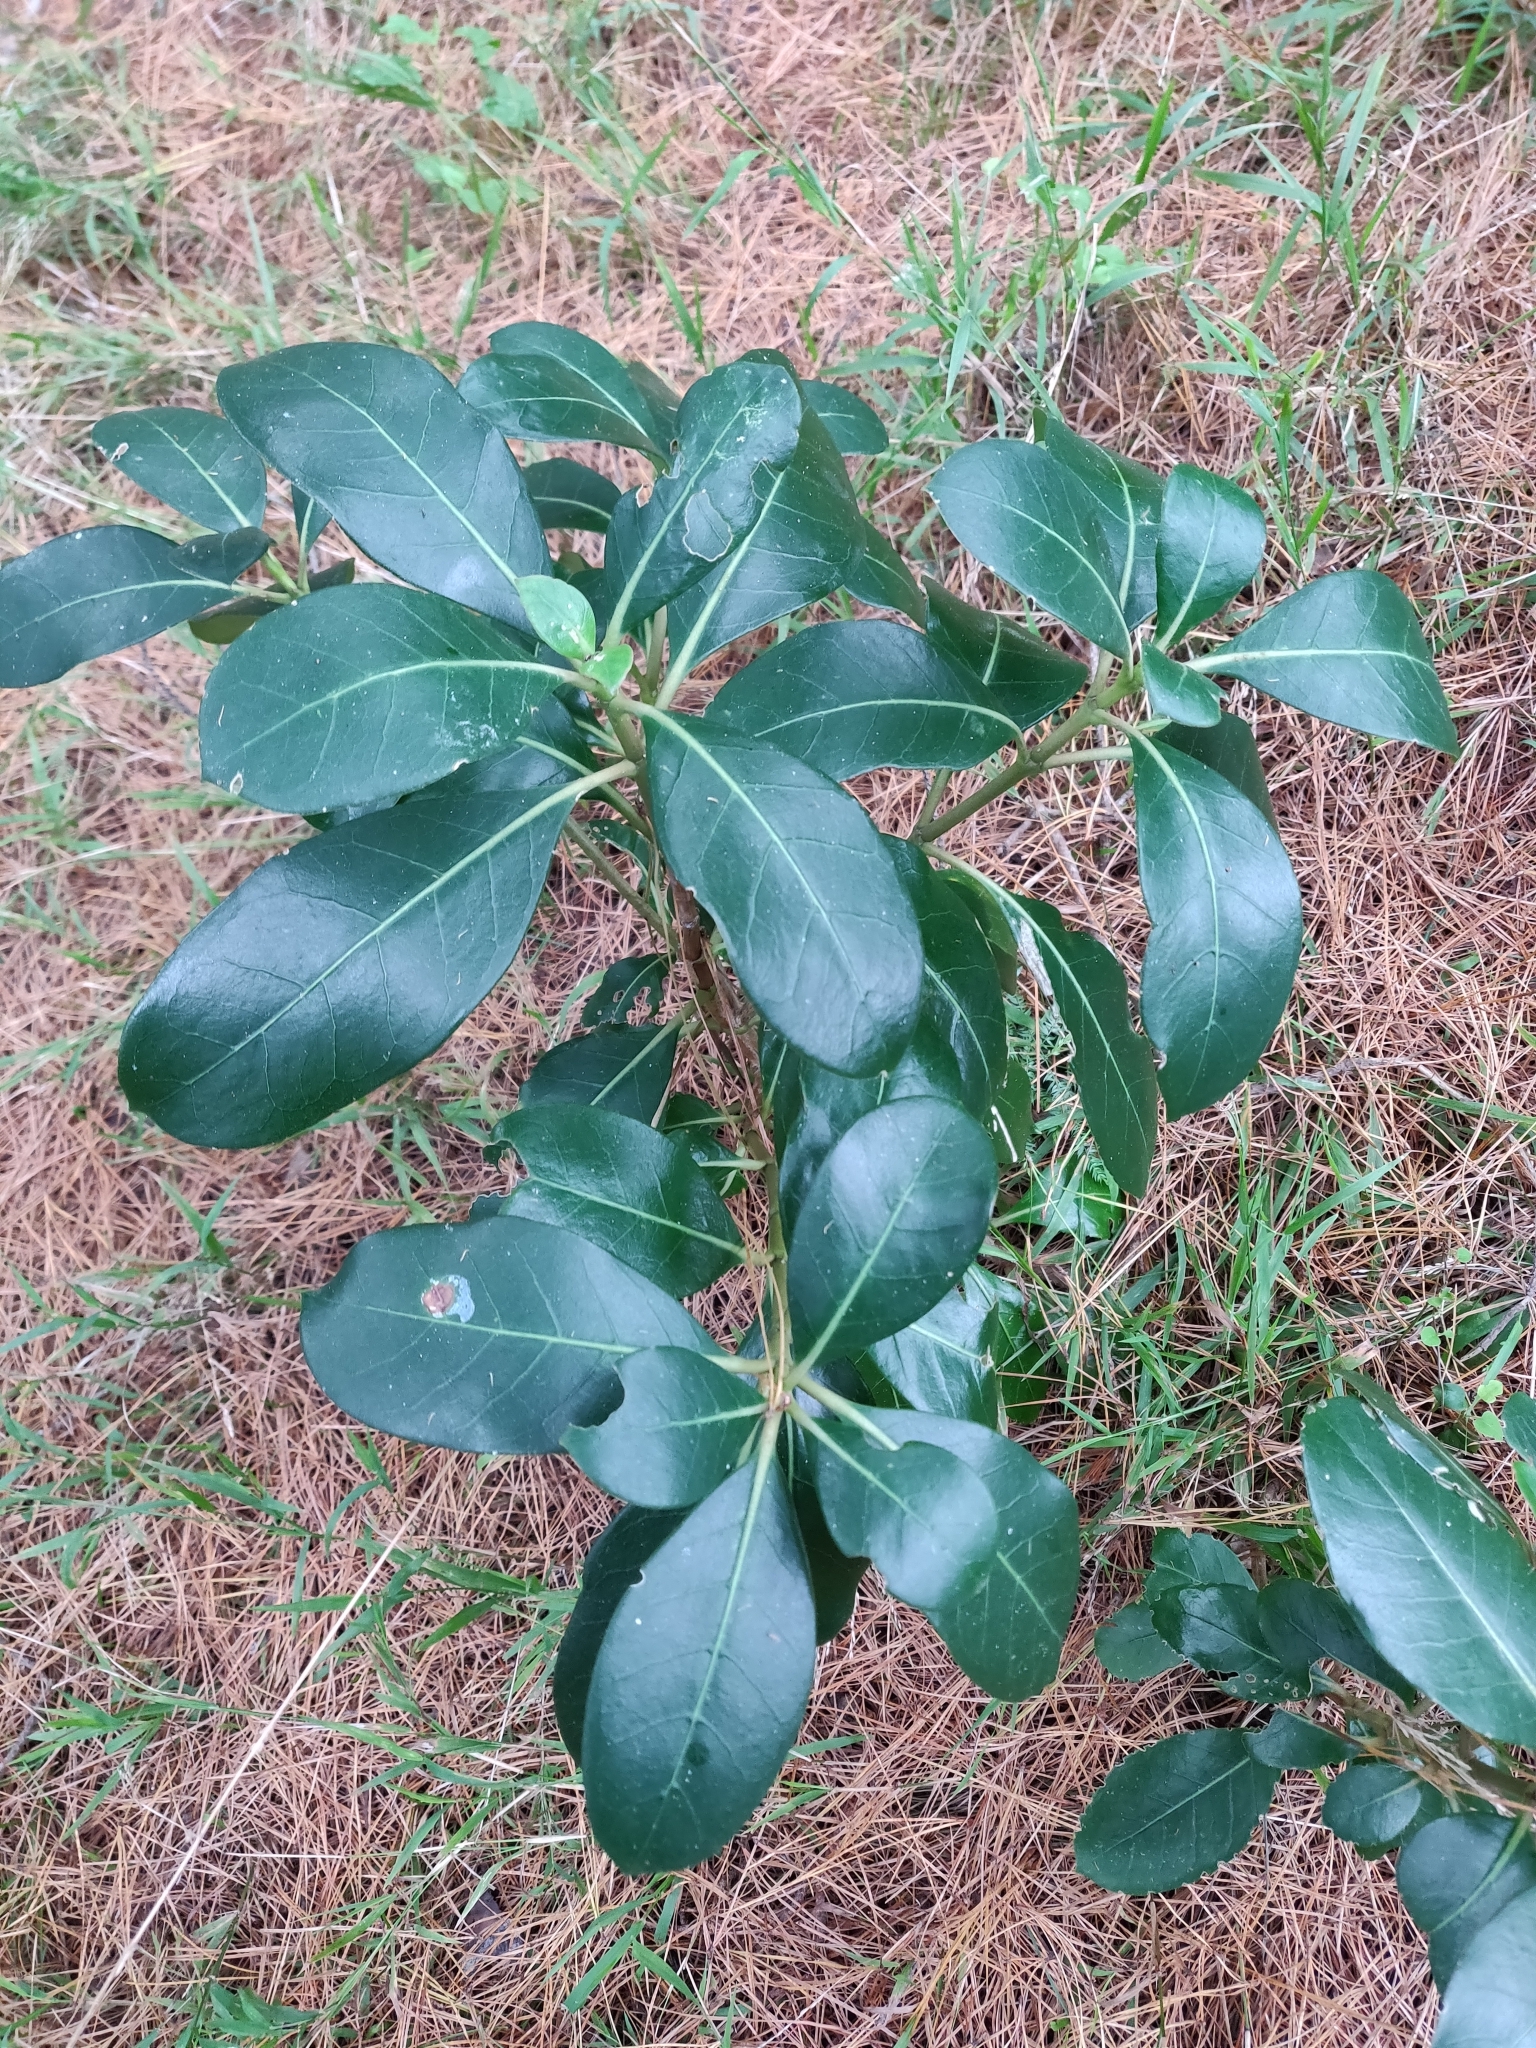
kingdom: Plantae
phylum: Tracheophyta
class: Magnoliopsida
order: Gentianales
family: Rubiaceae
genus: Coprosma
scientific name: Coprosma lucida
